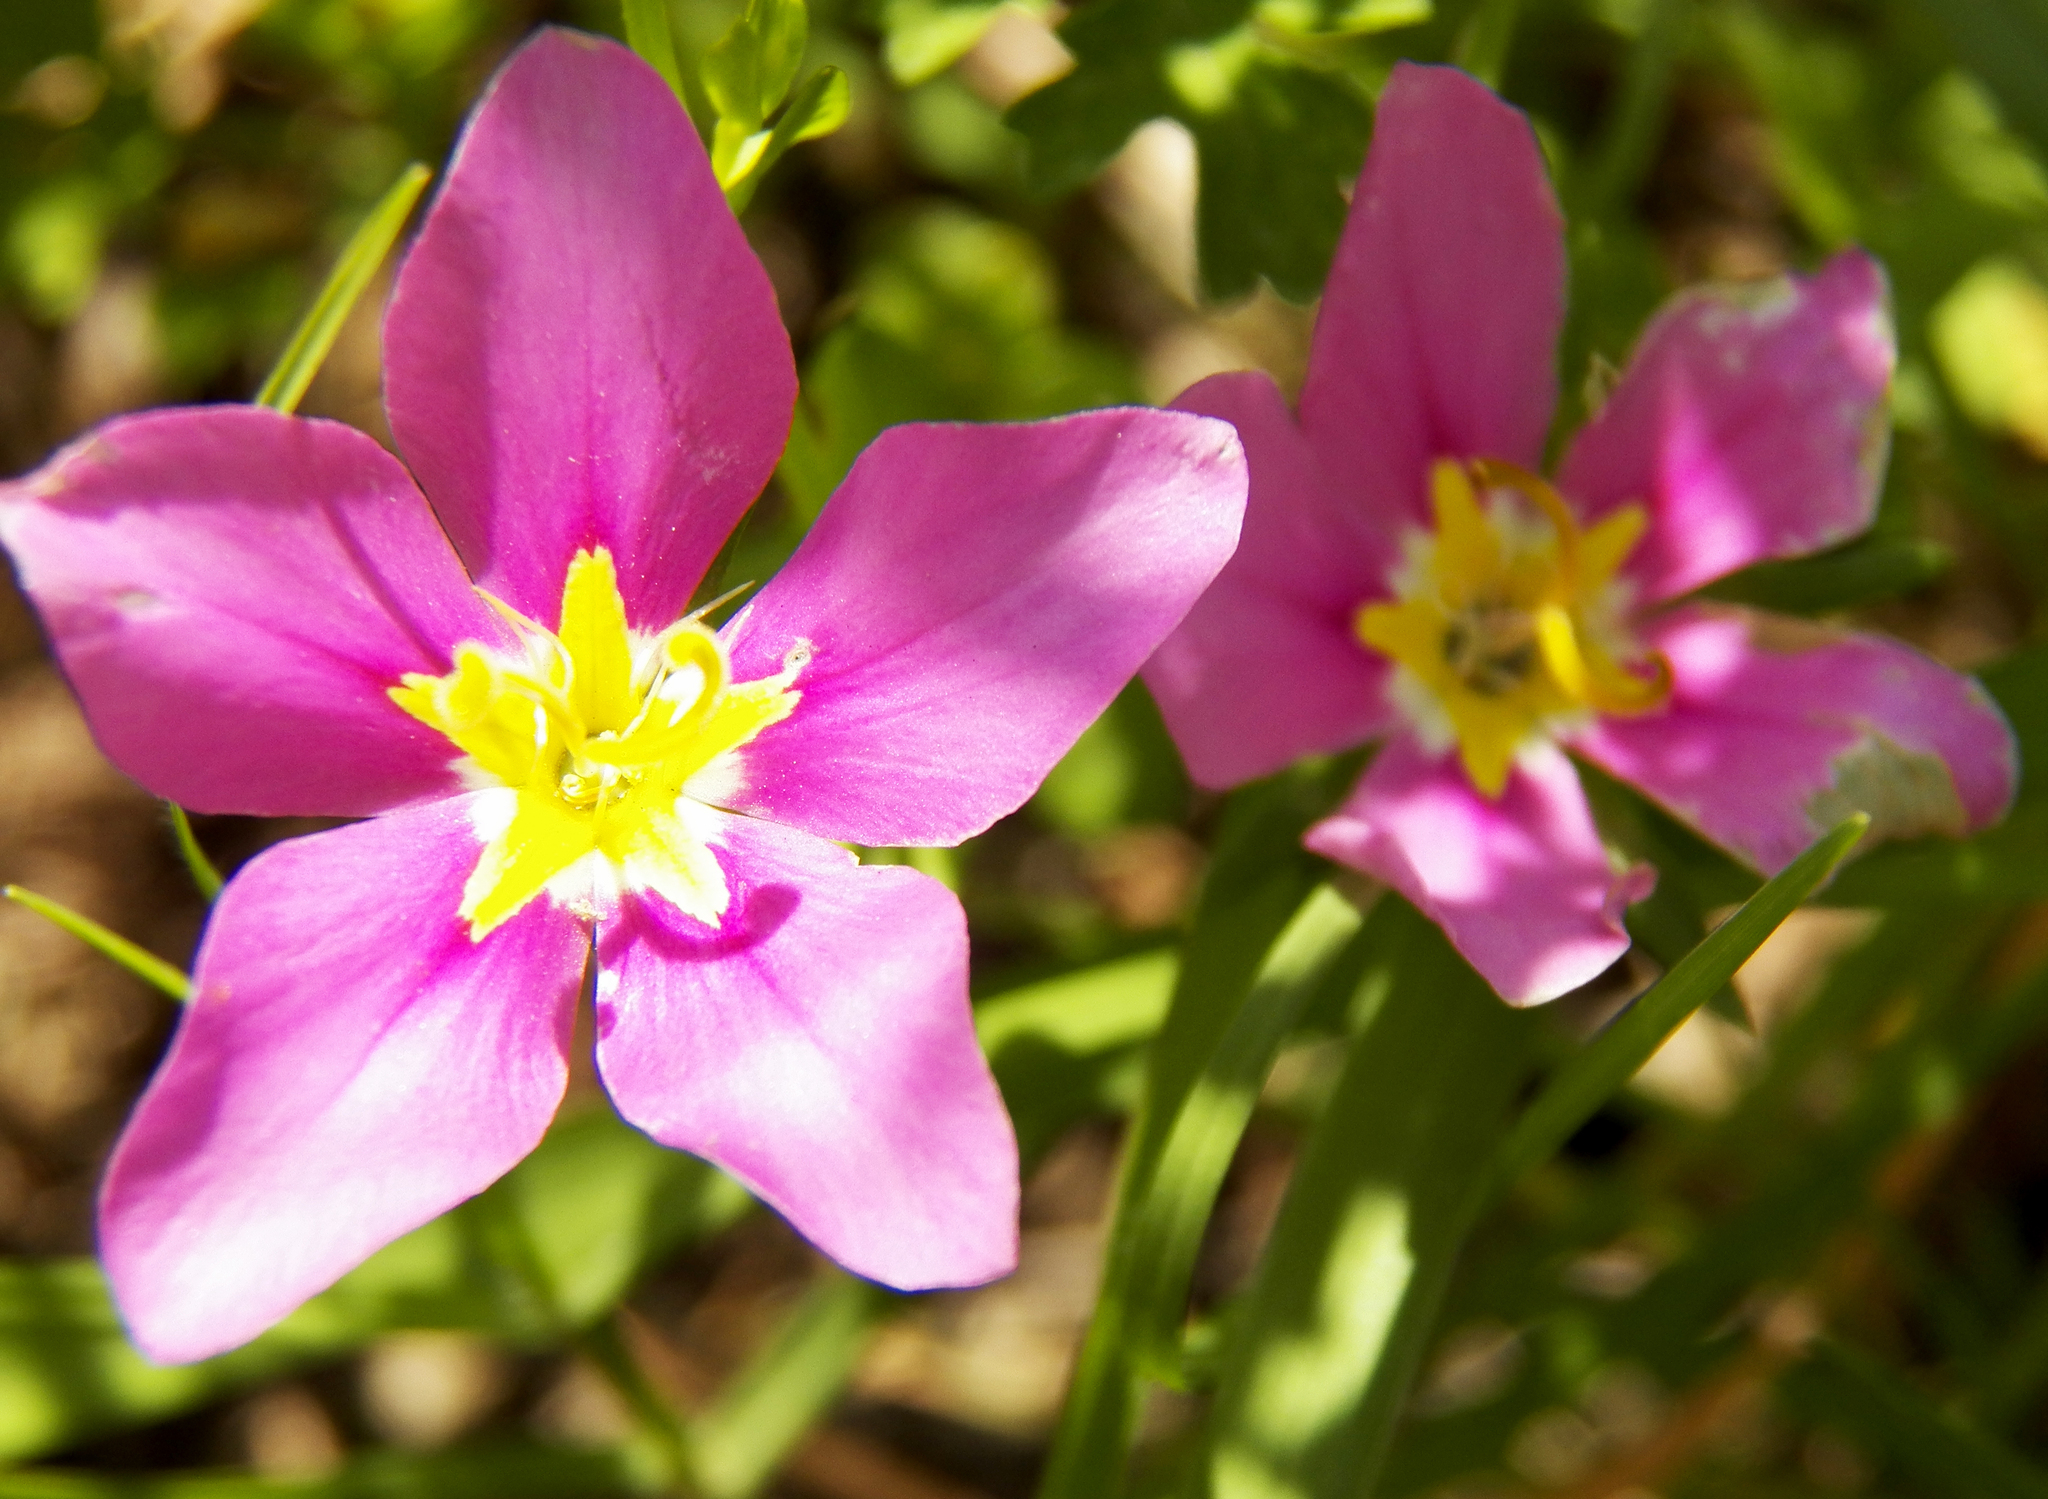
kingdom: Plantae
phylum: Tracheophyta
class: Magnoliopsida
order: Gentianales
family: Gentianaceae
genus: Sabatia
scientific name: Sabatia campestris
